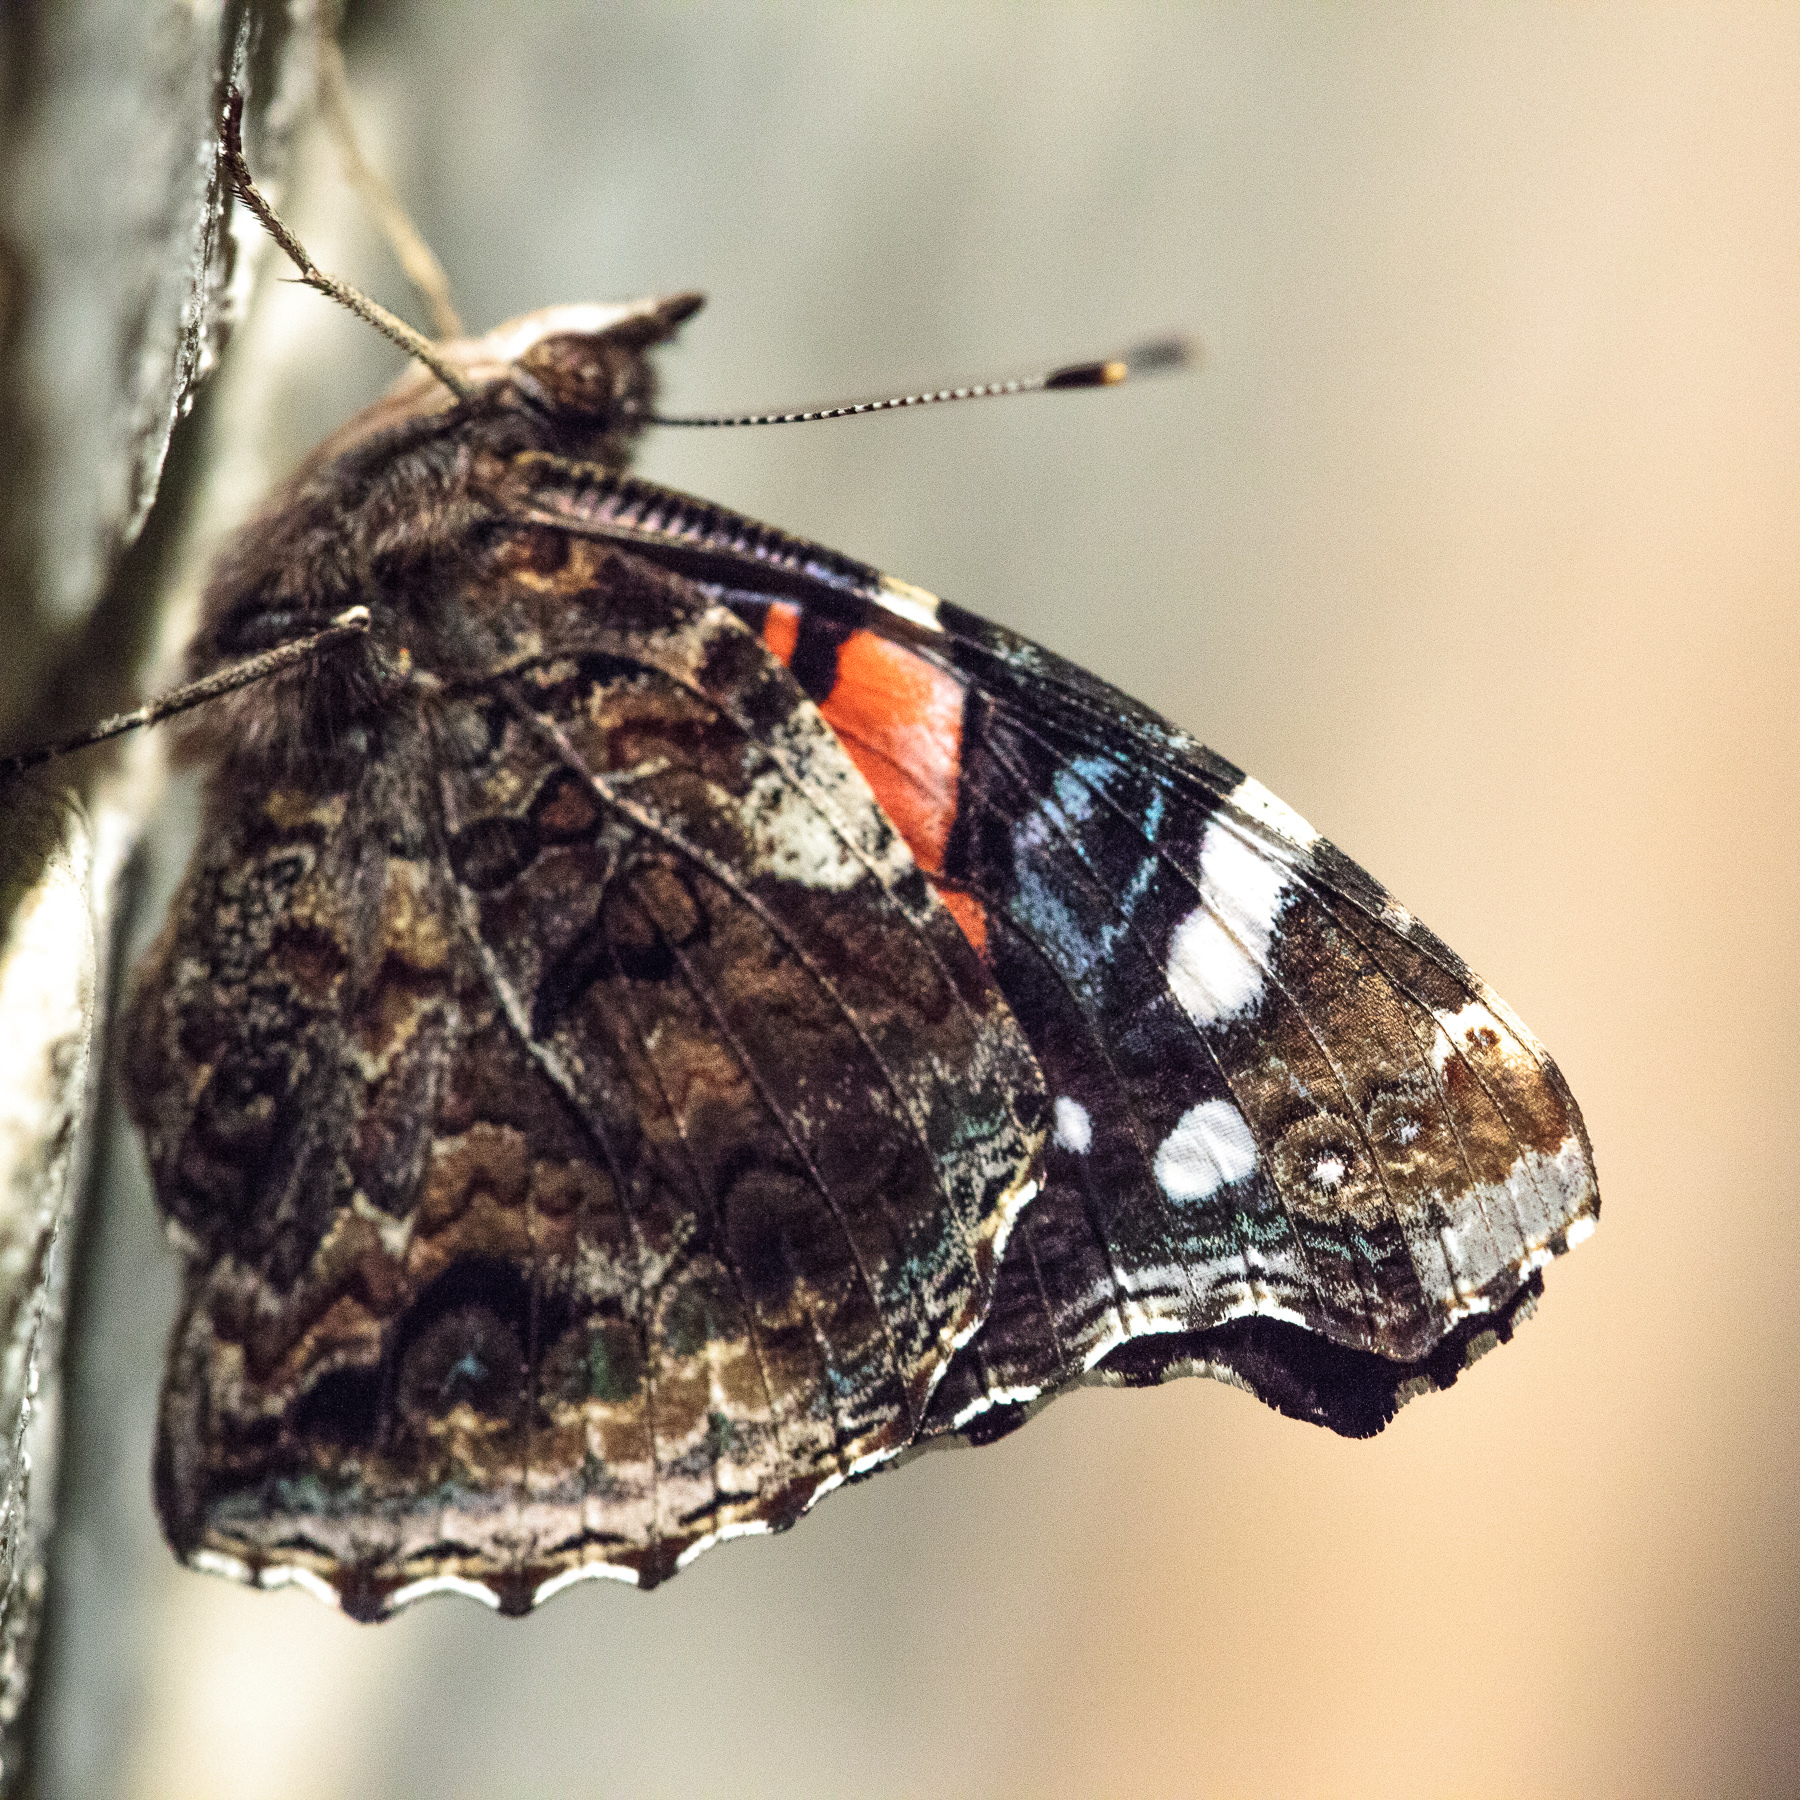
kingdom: Animalia
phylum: Arthropoda
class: Insecta
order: Lepidoptera
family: Nymphalidae
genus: Vanessa
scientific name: Vanessa atalanta
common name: Red admiral
